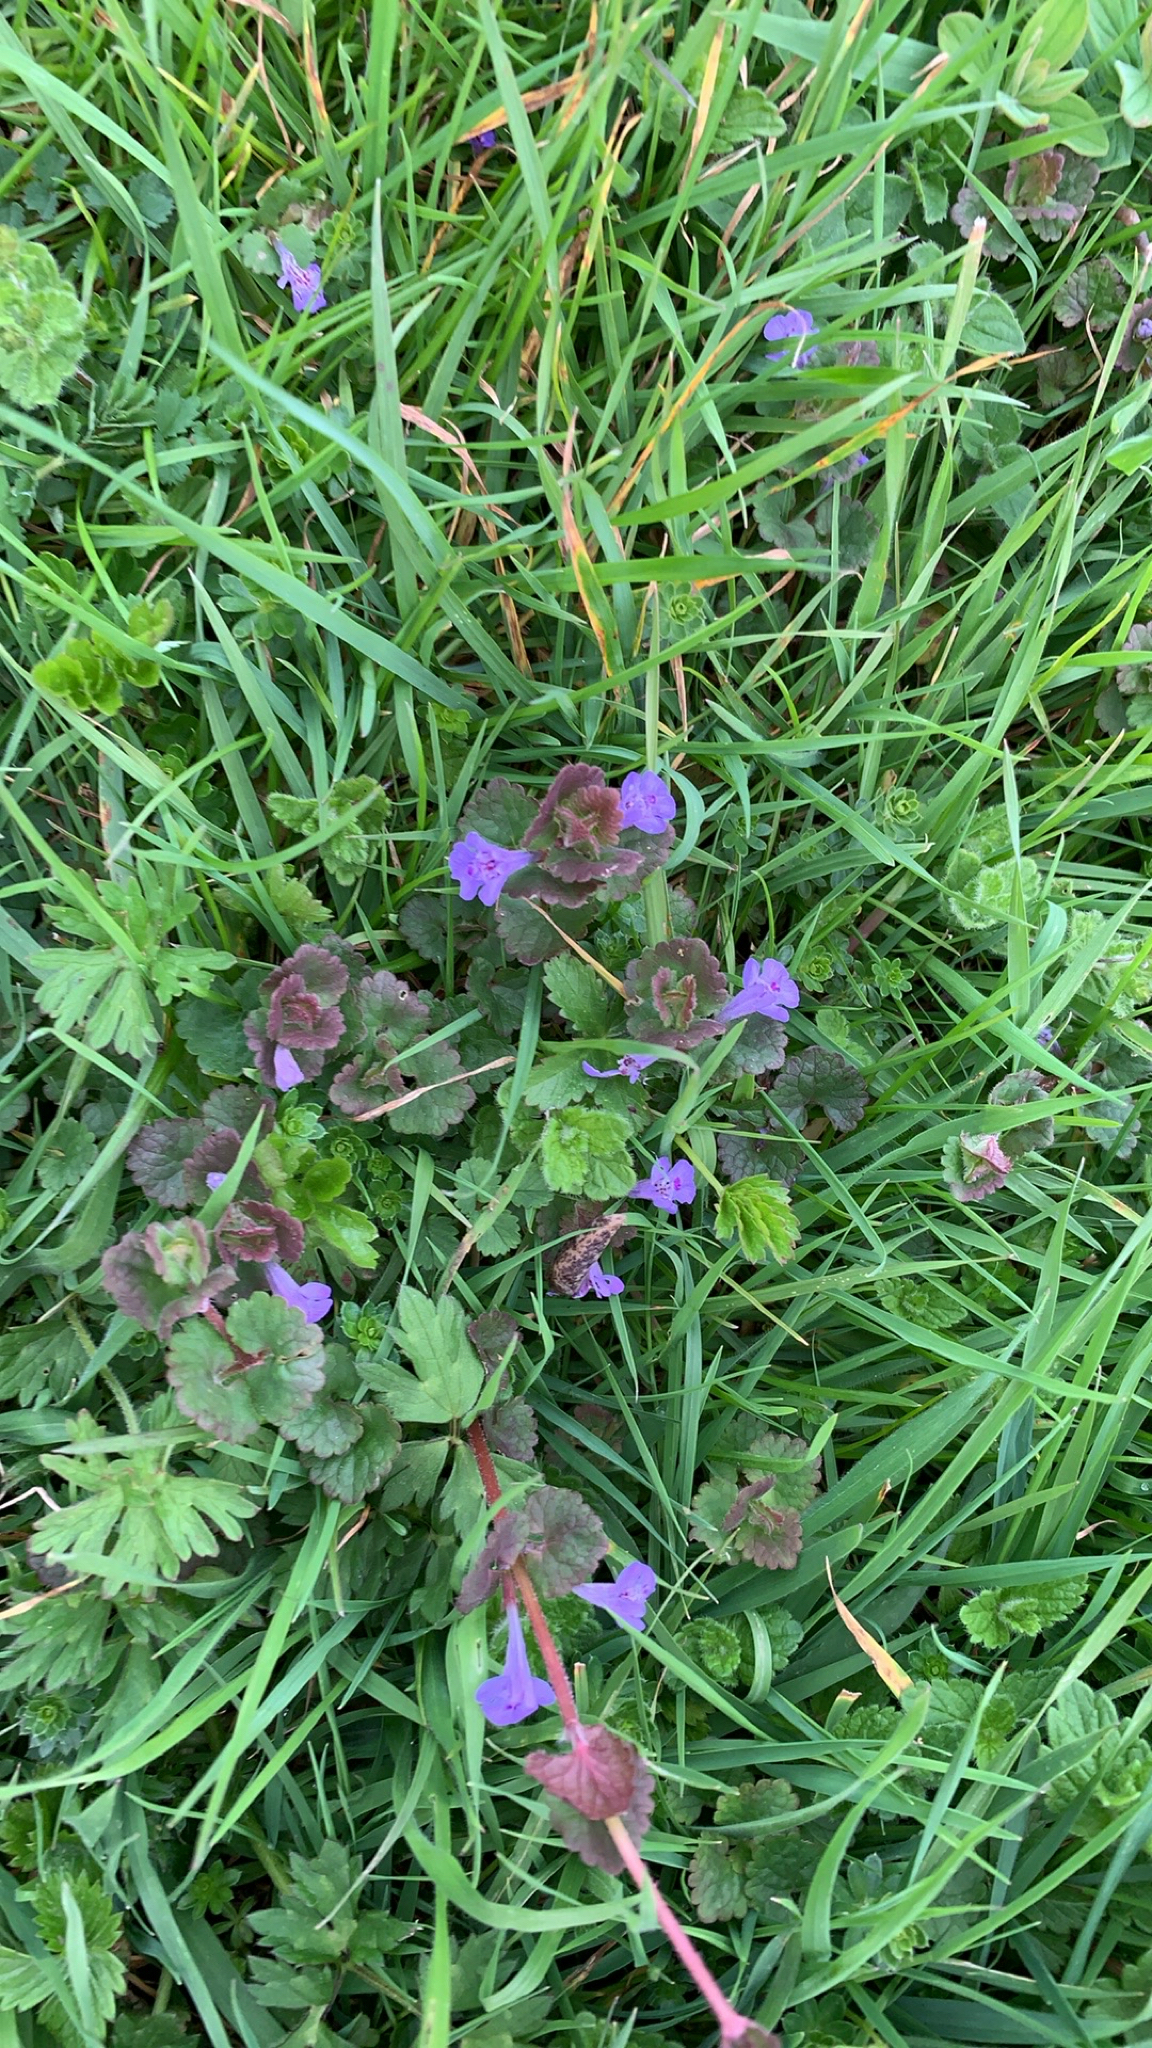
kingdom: Plantae
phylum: Tracheophyta
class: Magnoliopsida
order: Lamiales
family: Lamiaceae
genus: Glechoma
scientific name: Glechoma hederacea
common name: Ground ivy
